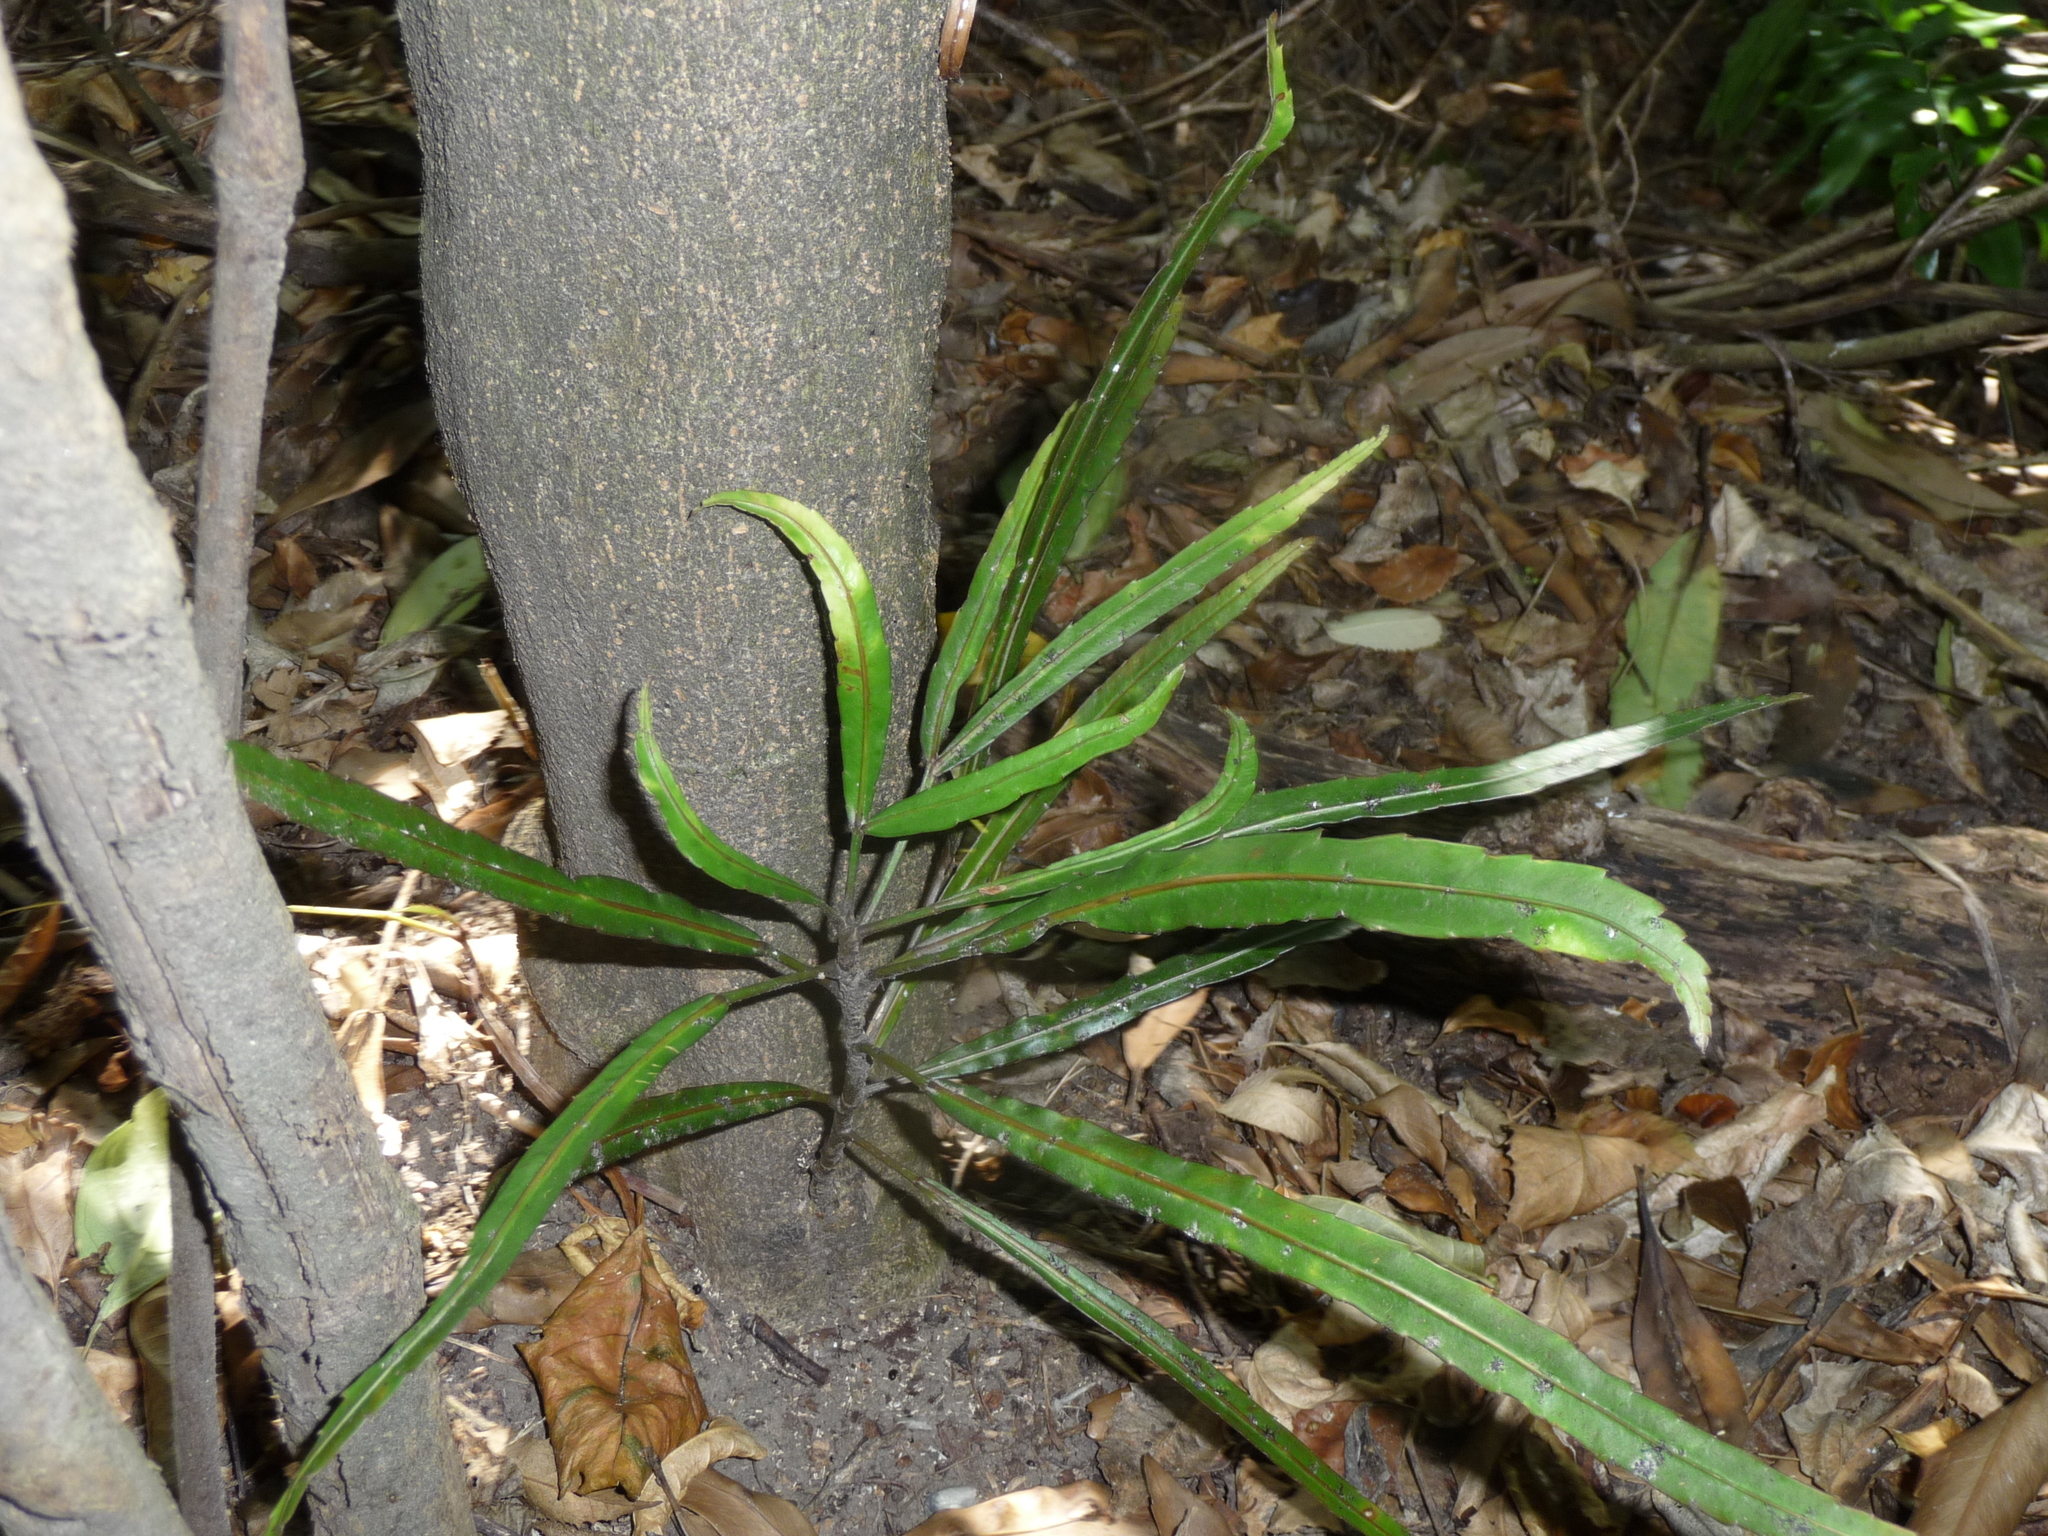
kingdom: Plantae
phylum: Tracheophyta
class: Magnoliopsida
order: Apiales
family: Araliaceae
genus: Pseudopanax
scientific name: Pseudopanax
